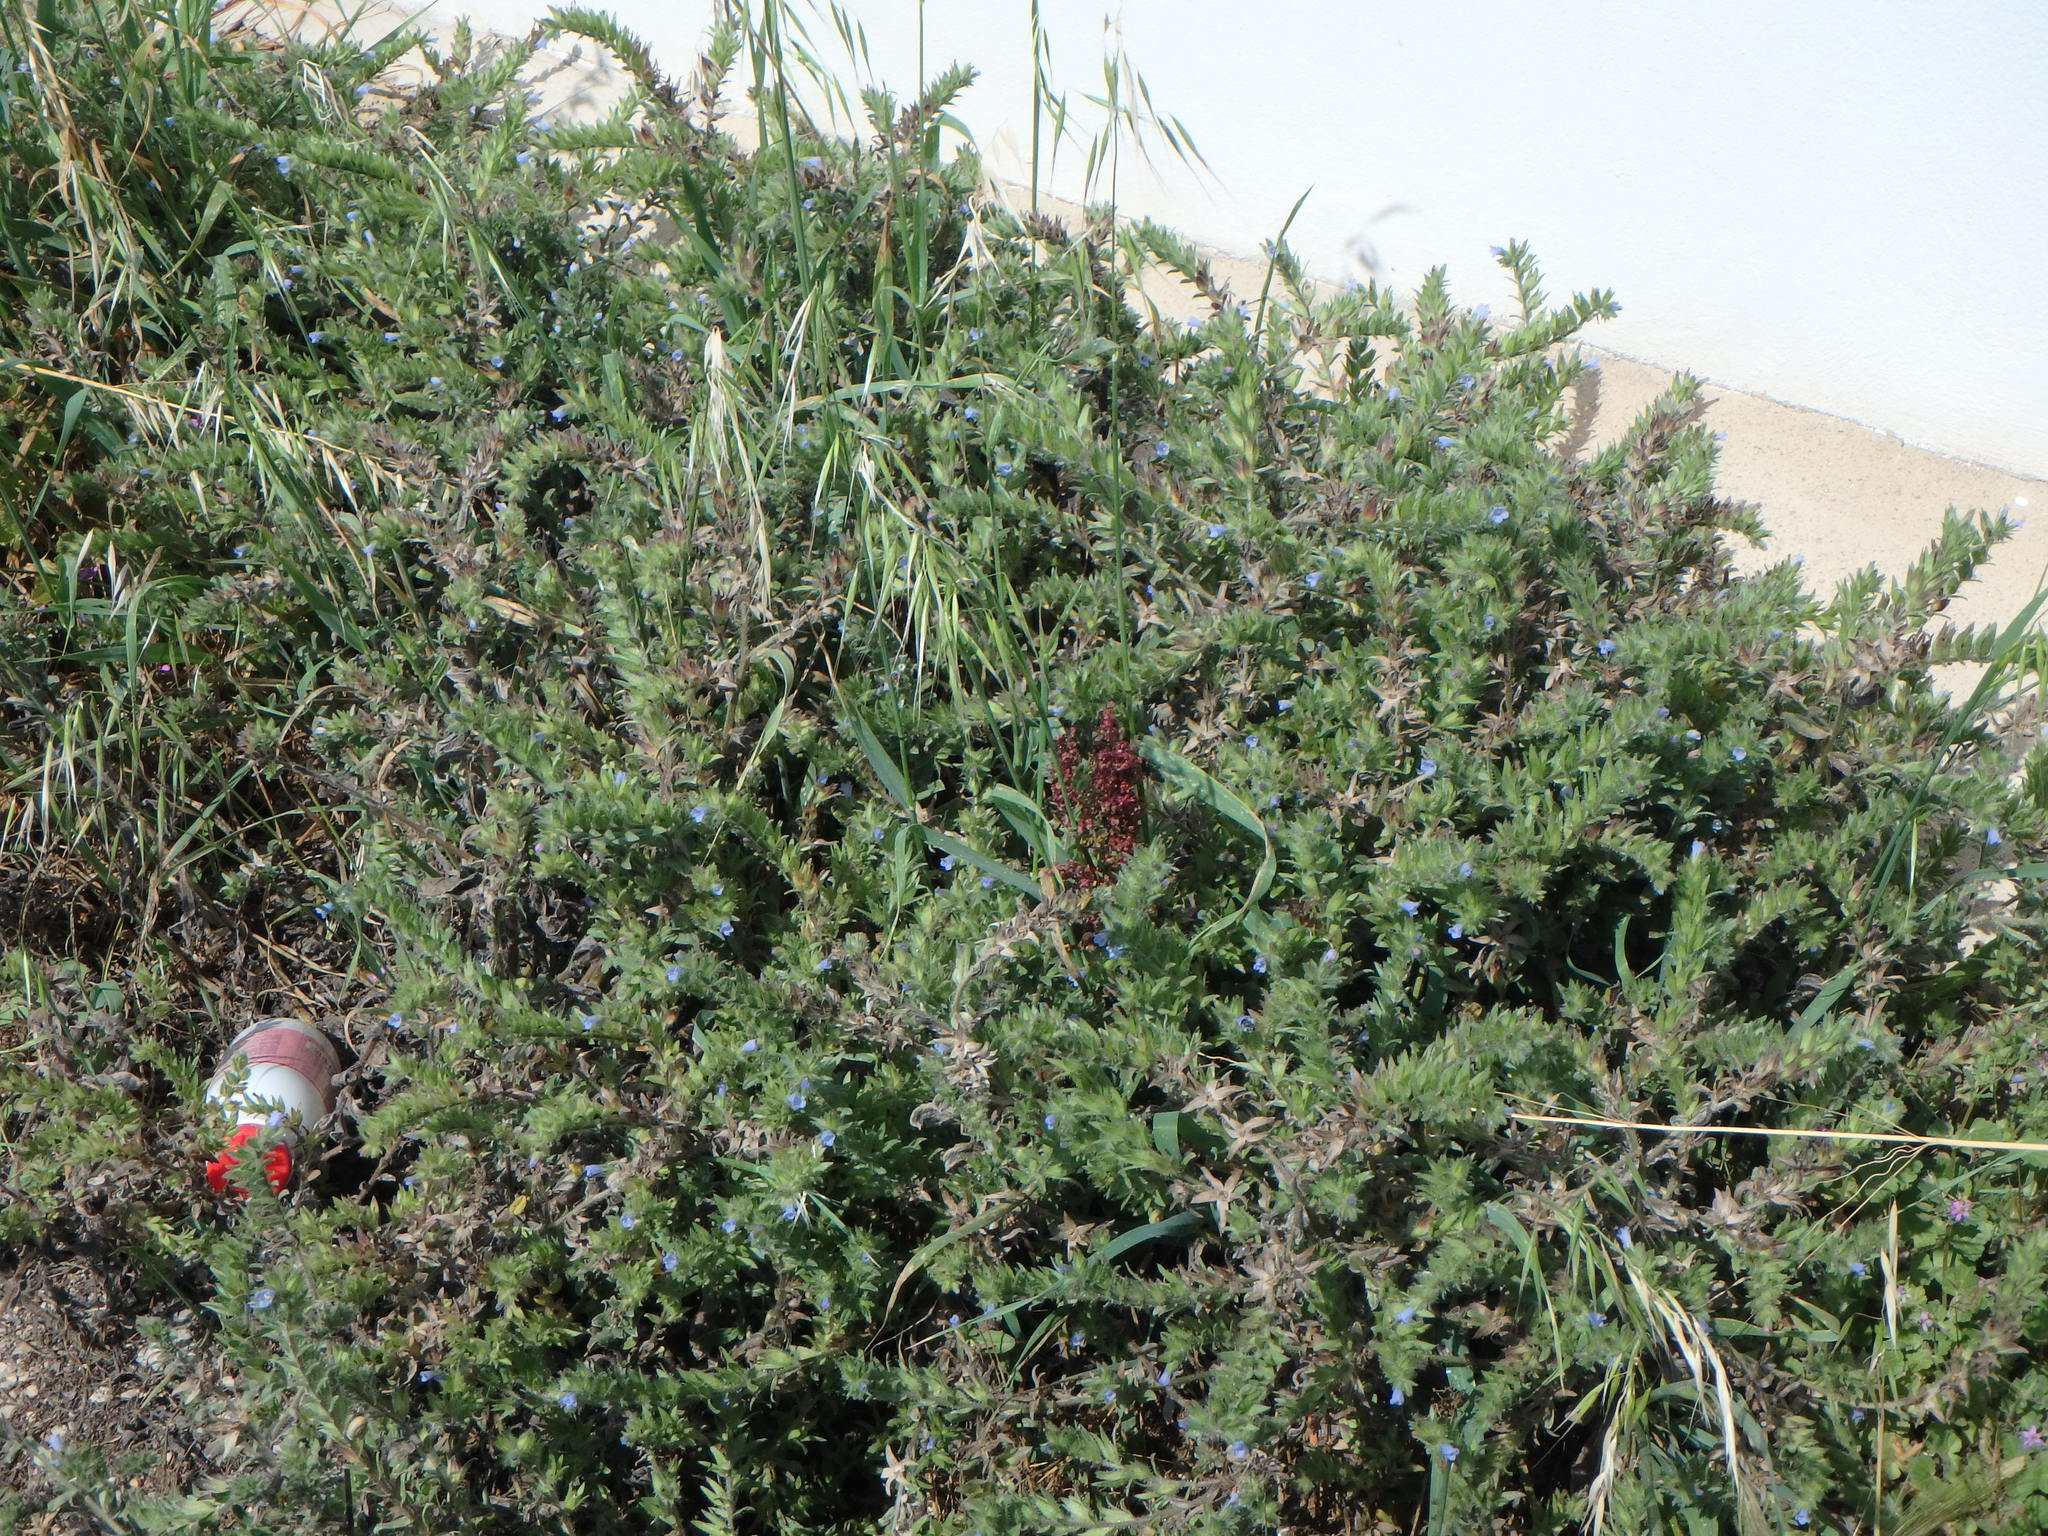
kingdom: Plantae
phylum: Tracheophyta
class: Magnoliopsida
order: Boraginales
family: Boraginaceae
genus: Echium
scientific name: Echium parviflorum
